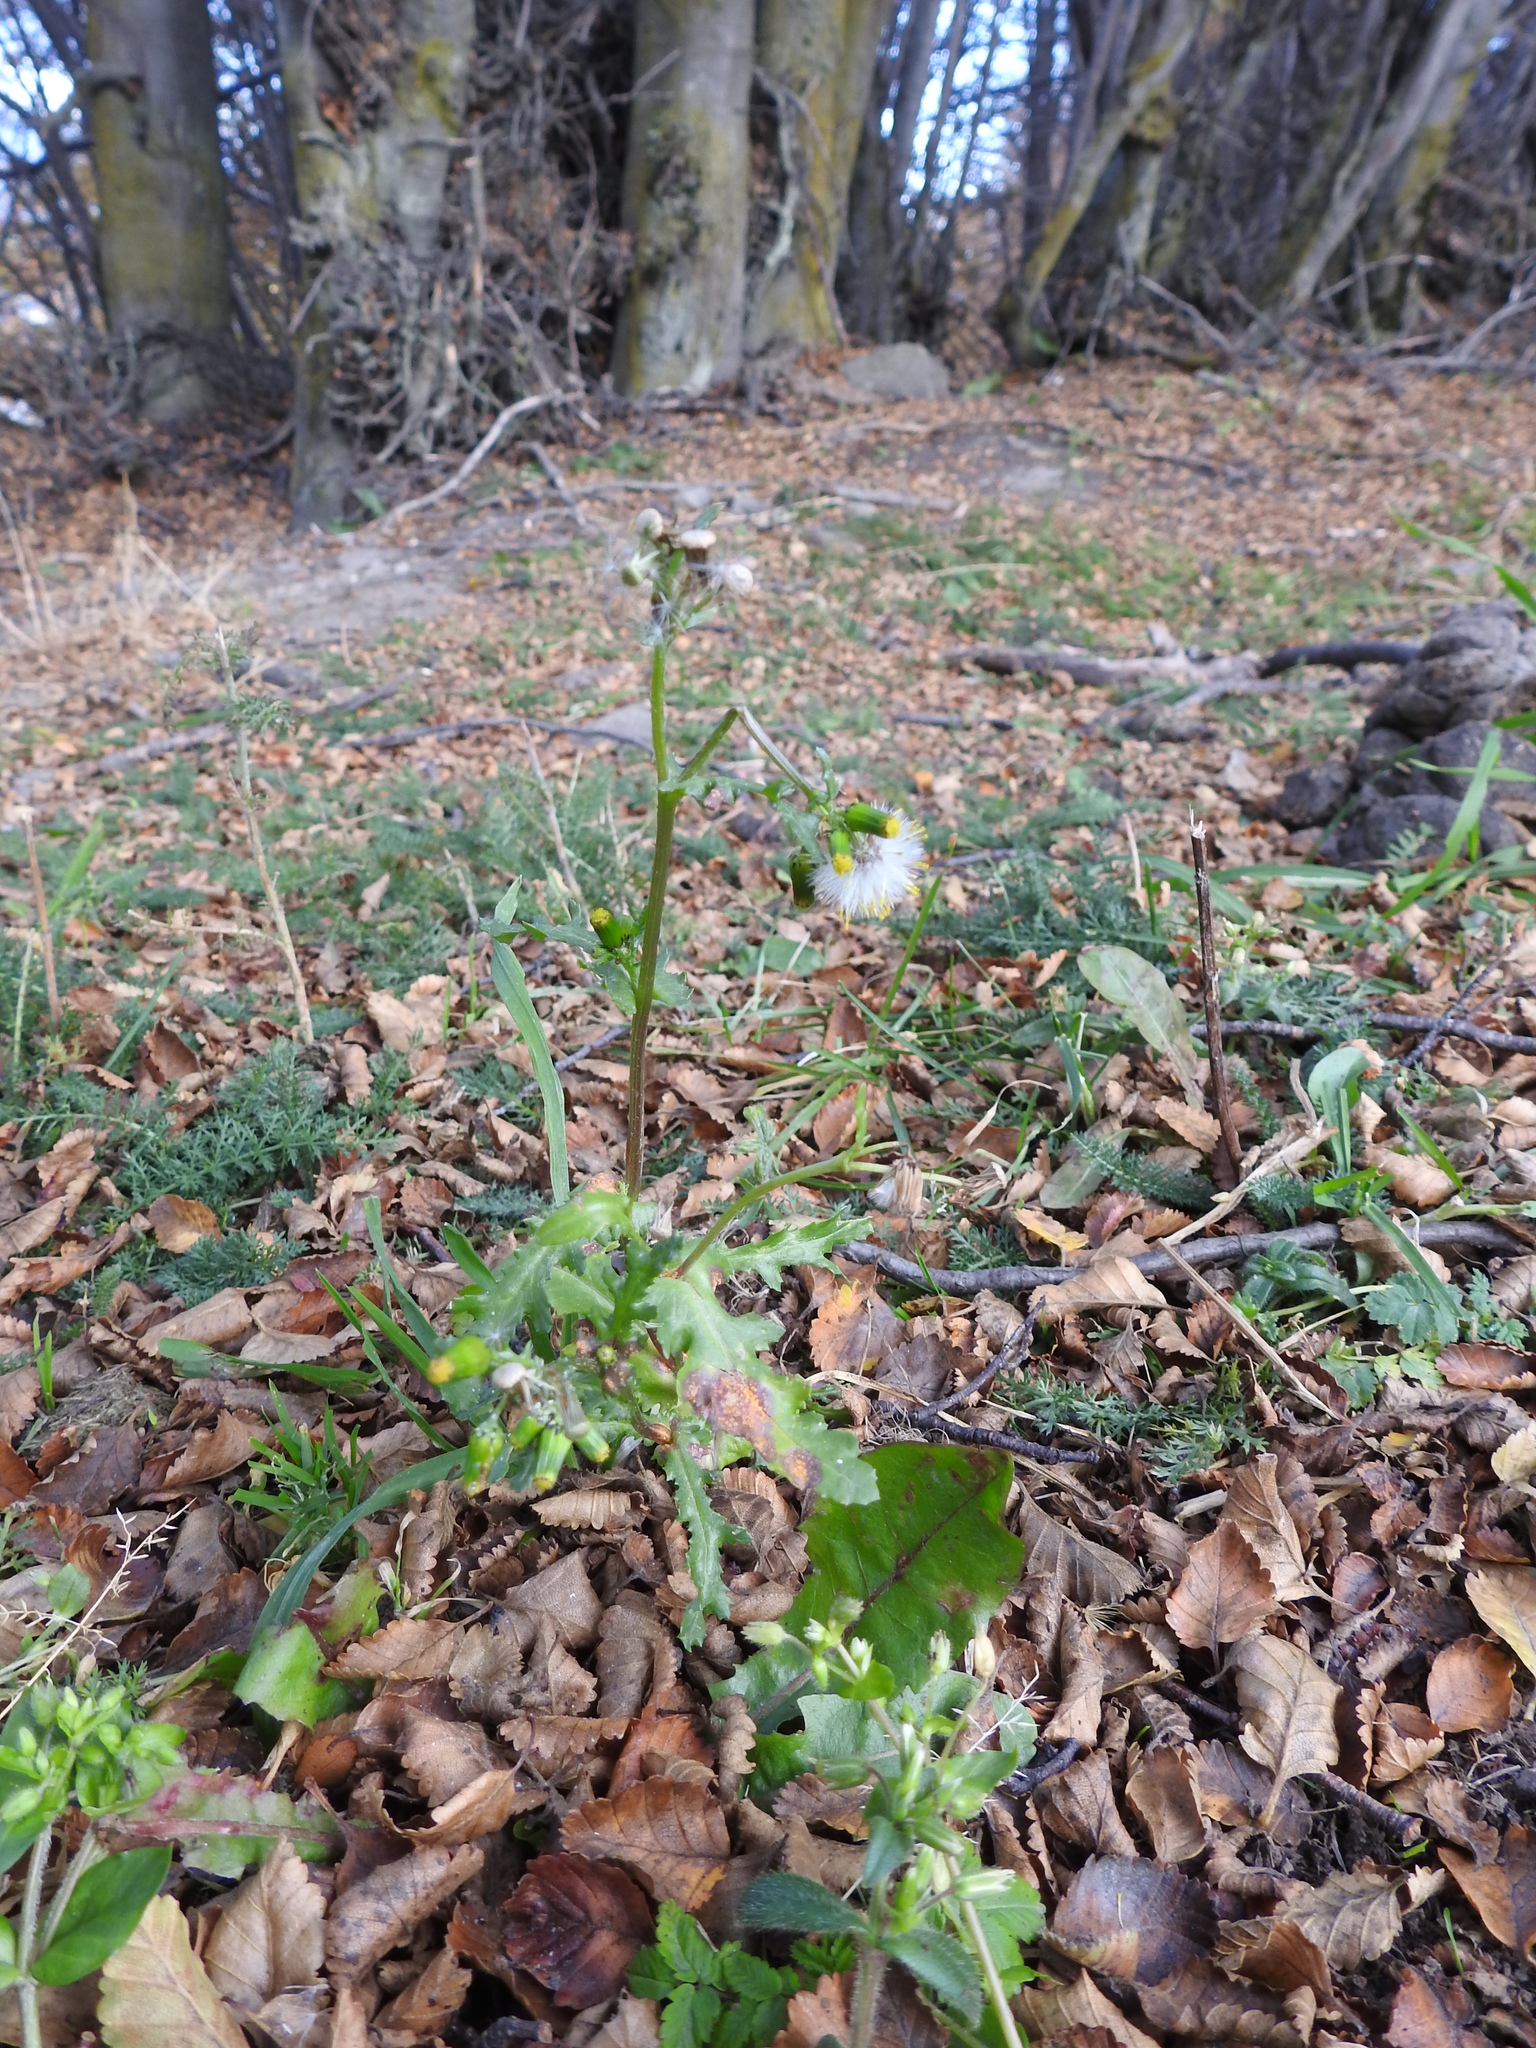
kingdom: Plantae
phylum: Tracheophyta
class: Magnoliopsida
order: Asterales
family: Asteraceae
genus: Senecio
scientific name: Senecio vulgaris
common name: Old-man-in-the-spring
